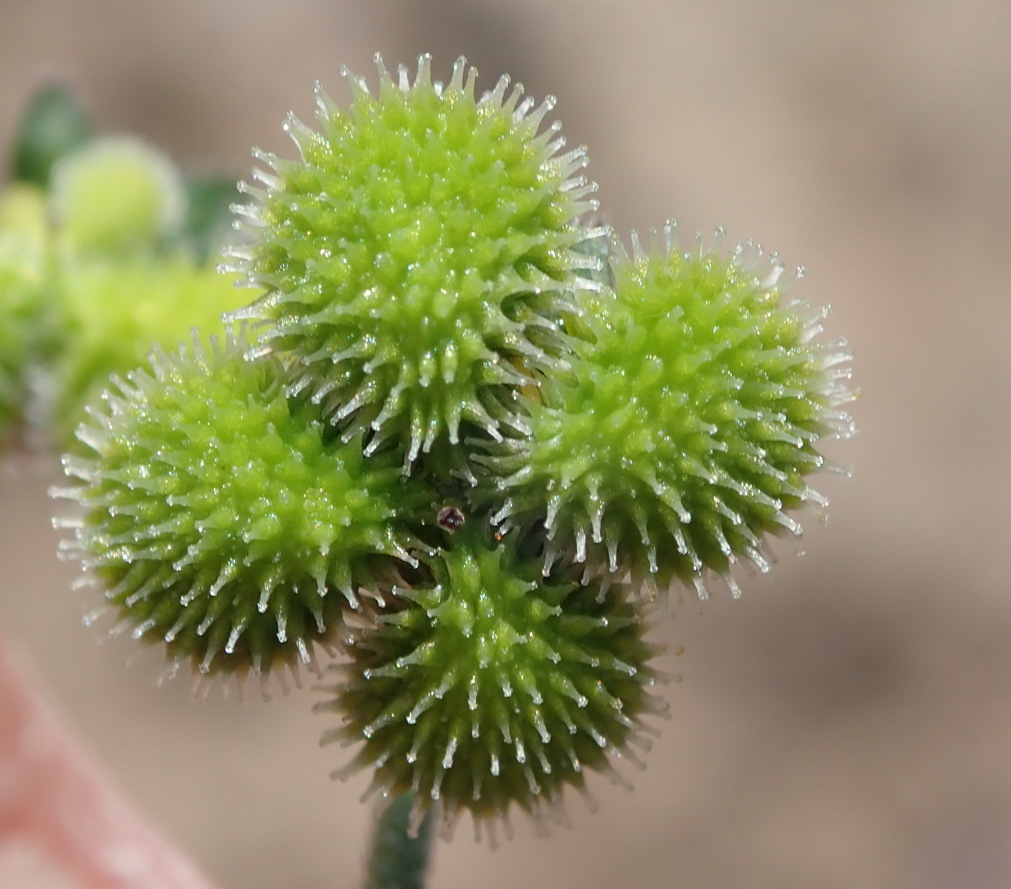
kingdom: Plantae
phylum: Tracheophyta
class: Magnoliopsida
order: Boraginales
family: Boraginaceae
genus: Cynoglossum
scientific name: Cynoglossum hispidum
